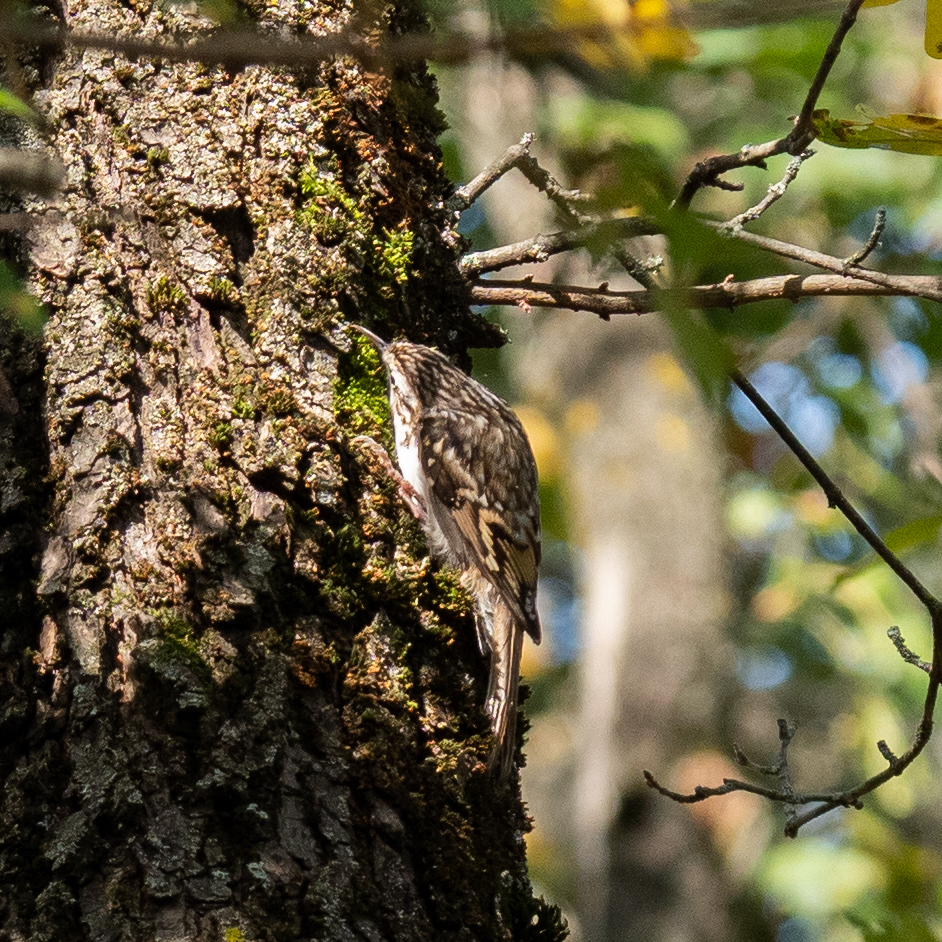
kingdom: Animalia
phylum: Chordata
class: Aves
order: Passeriformes
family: Certhiidae
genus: Certhia
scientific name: Certhia familiaris
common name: Eurasian treecreeper
